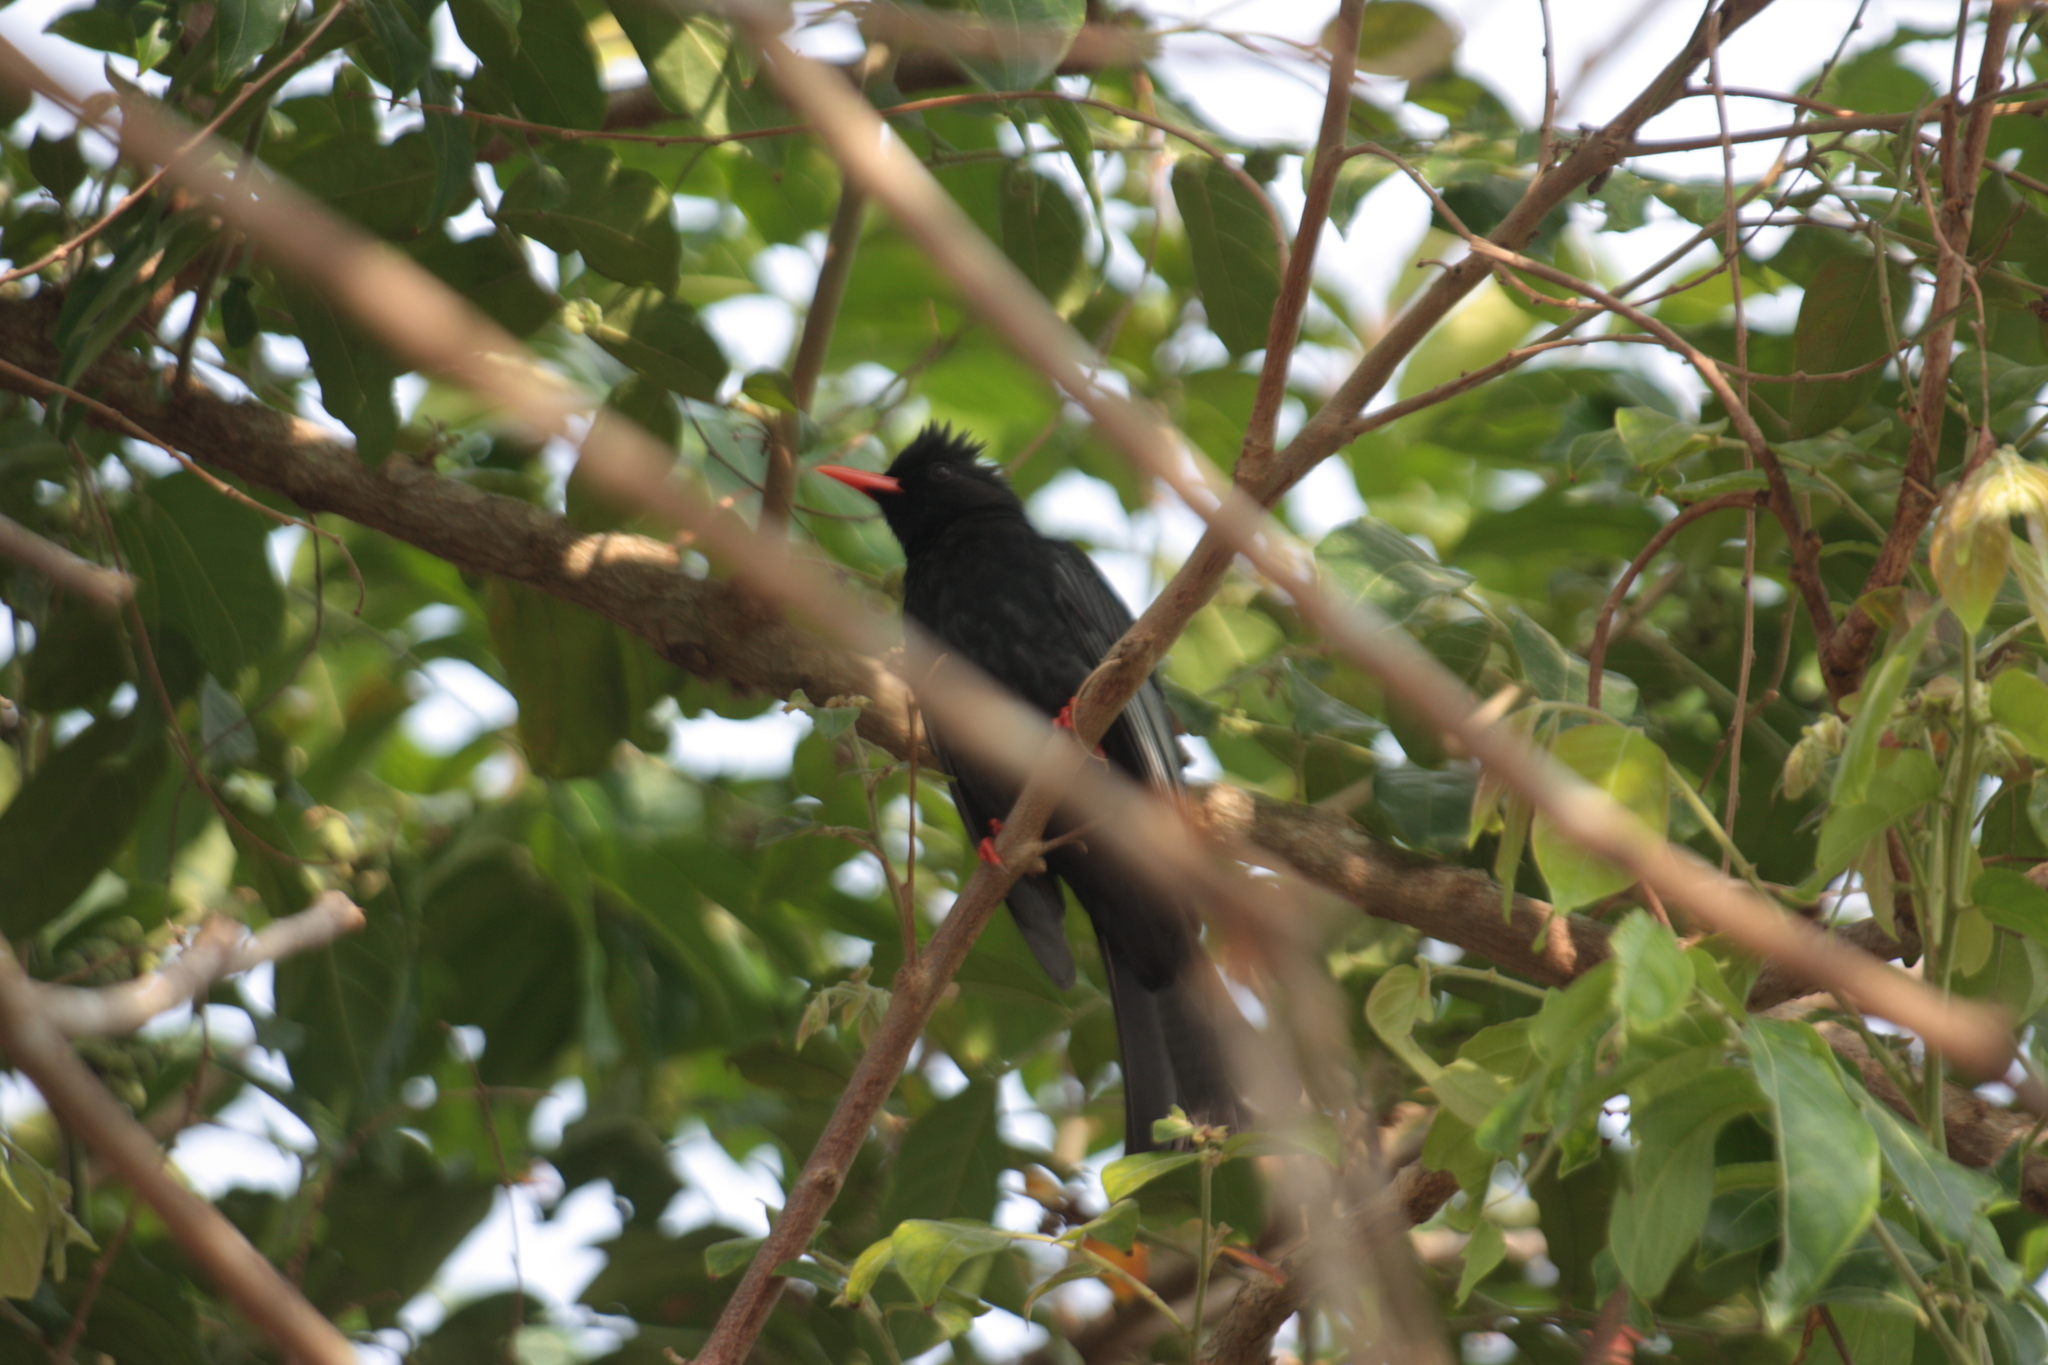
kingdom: Animalia
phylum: Chordata
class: Aves
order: Passeriformes
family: Pycnonotidae
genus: Hypsipetes
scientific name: Hypsipetes leucocephalus
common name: Black bulbul
